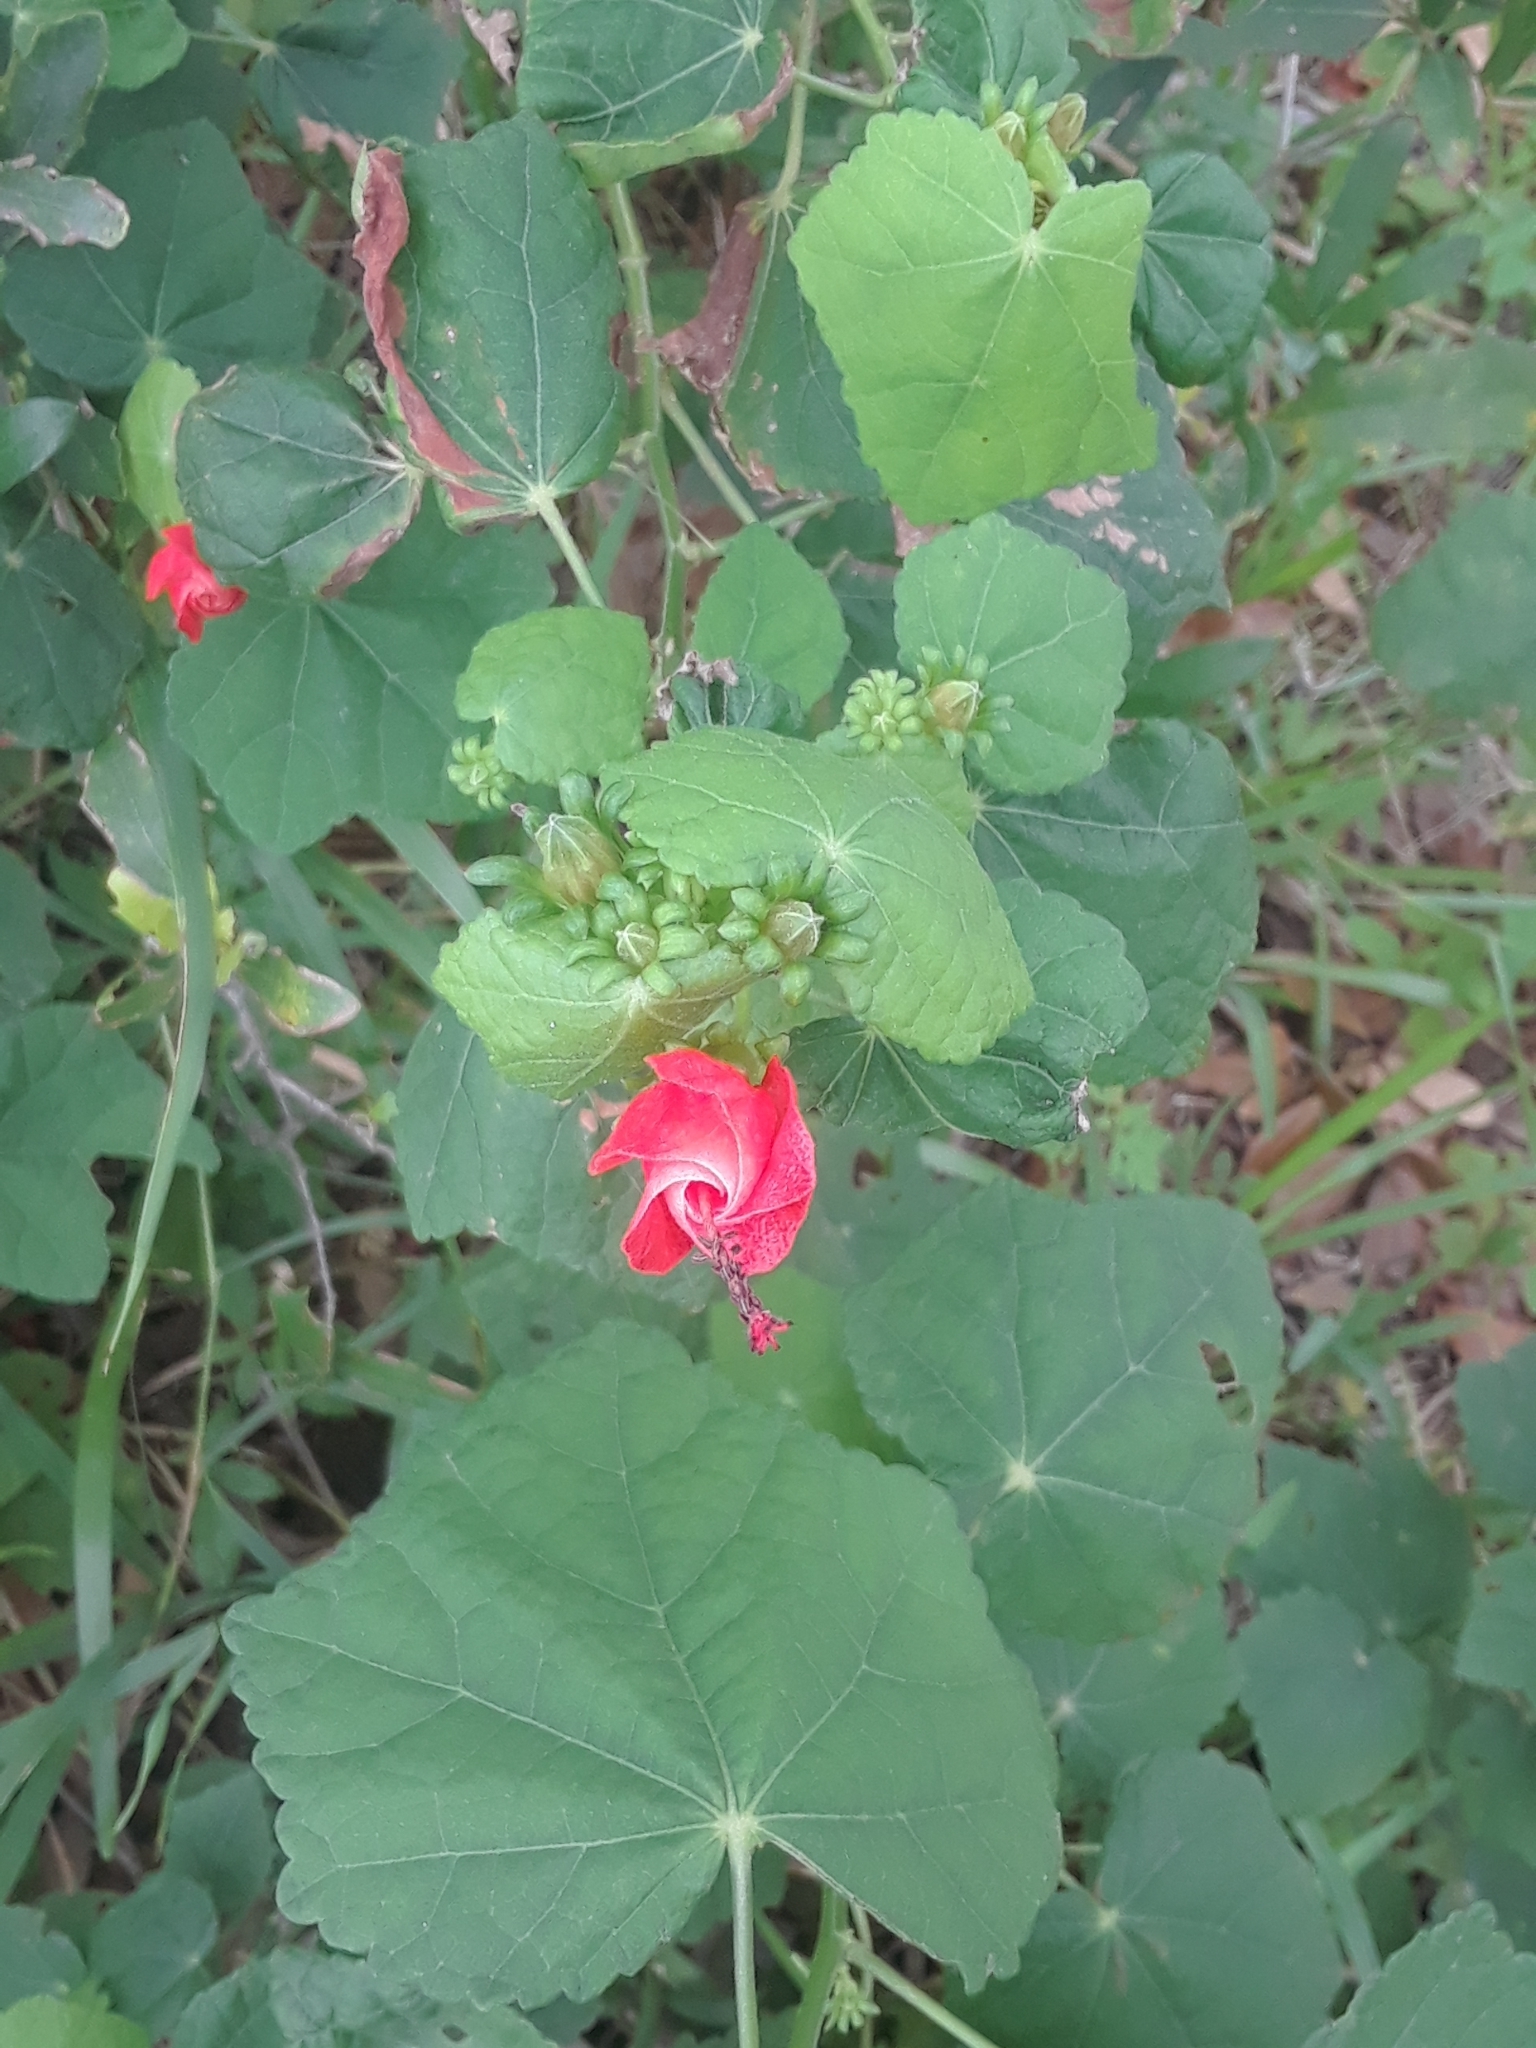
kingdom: Plantae
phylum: Tracheophyta
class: Magnoliopsida
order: Malvales
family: Malvaceae
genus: Malvaviscus
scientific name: Malvaviscus arboreus
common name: Wax mallow
